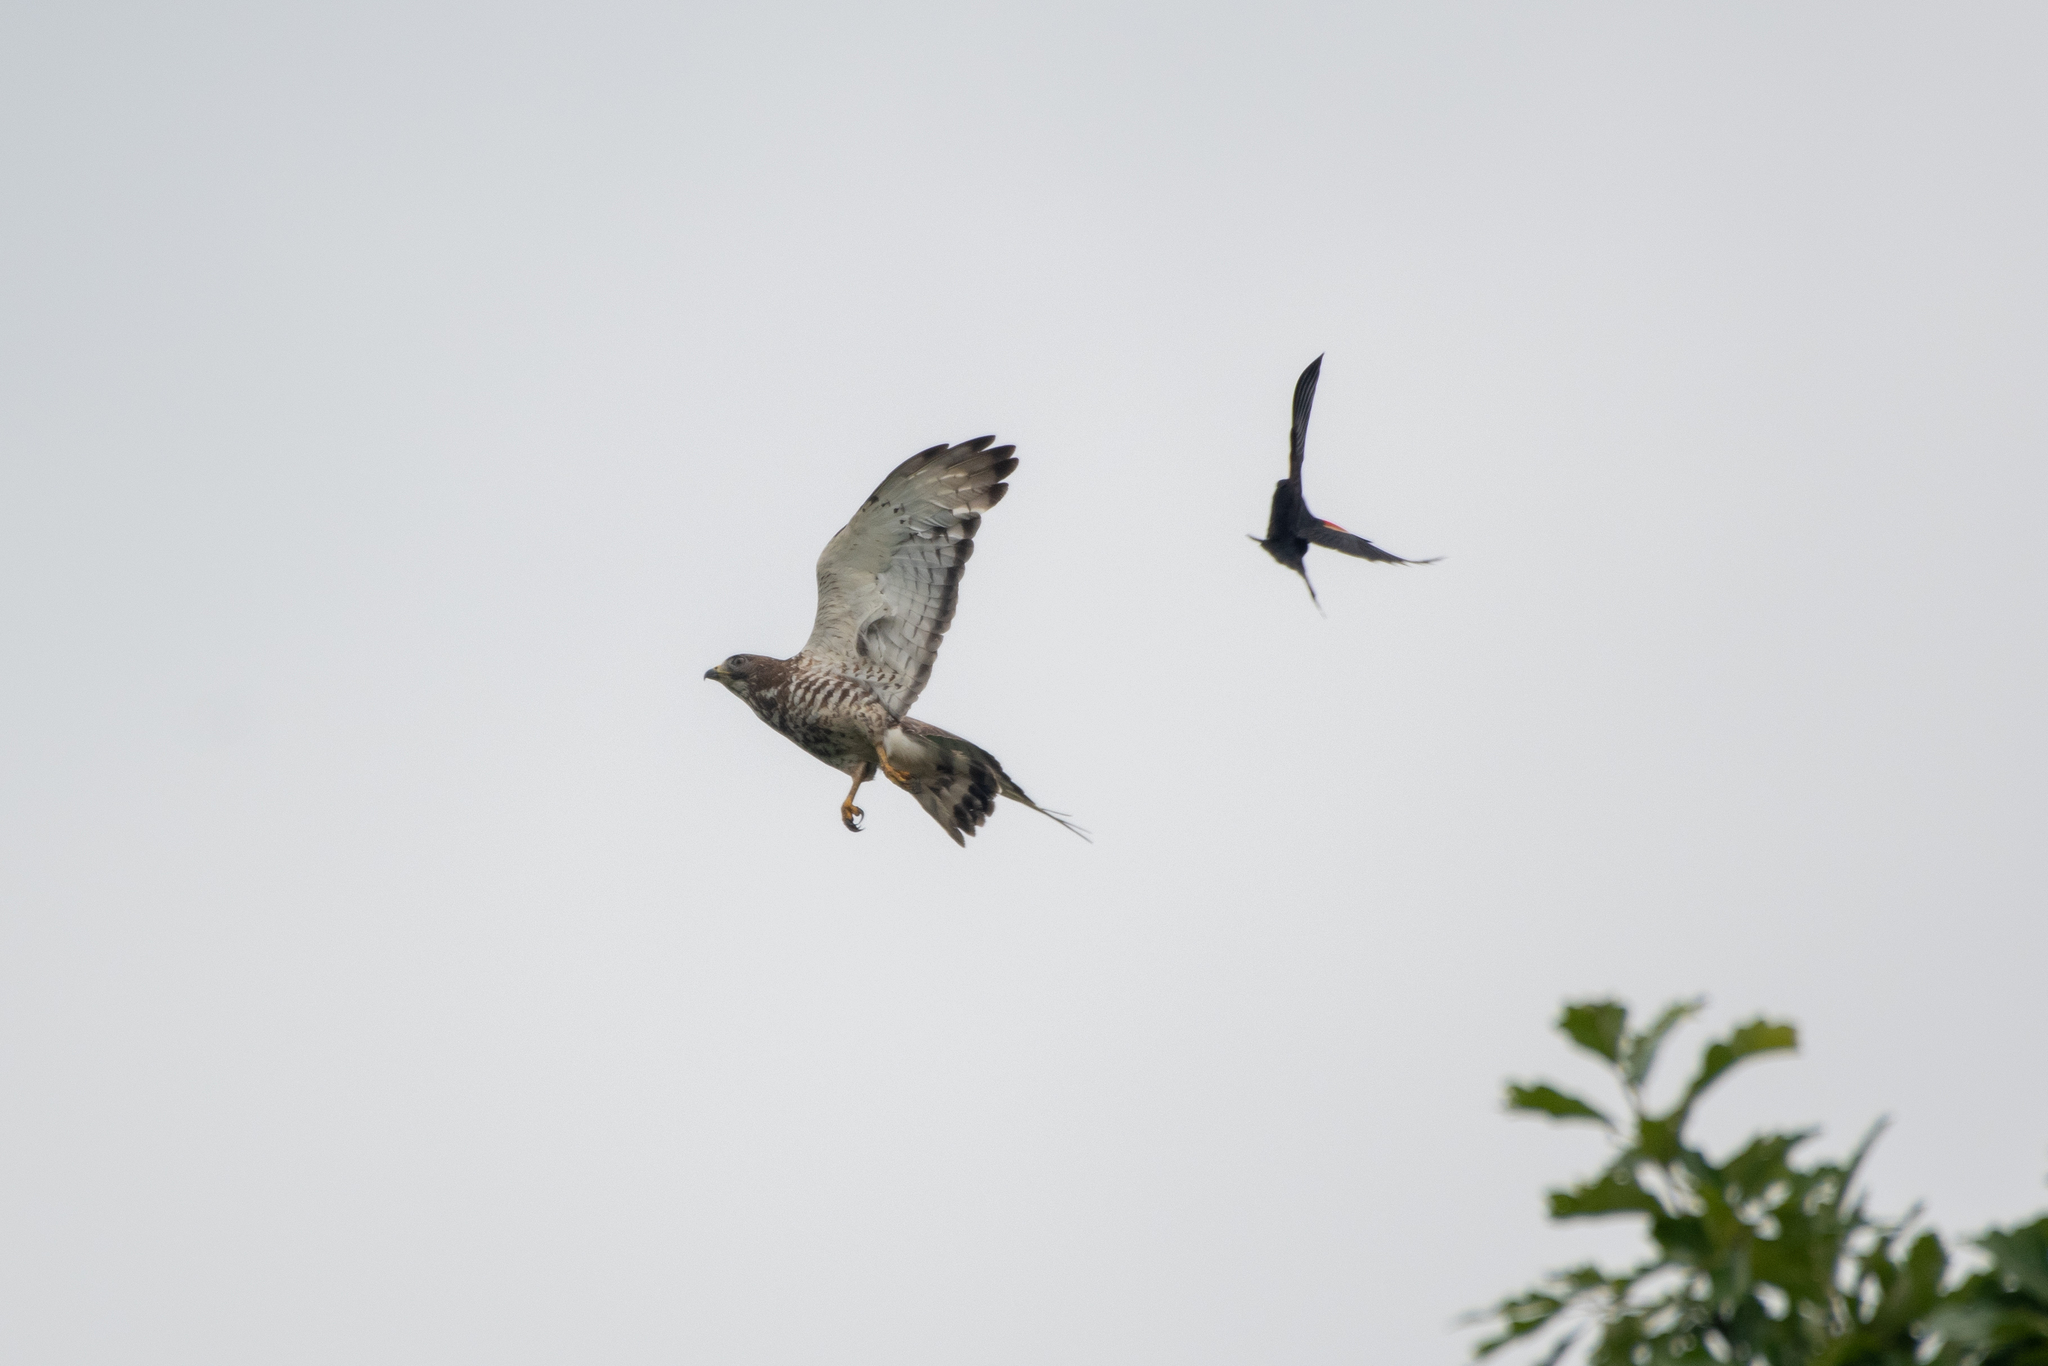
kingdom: Animalia
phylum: Chordata
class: Aves
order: Accipitriformes
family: Accipitridae
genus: Buteo
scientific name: Buteo platypterus
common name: Broad-winged hawk
